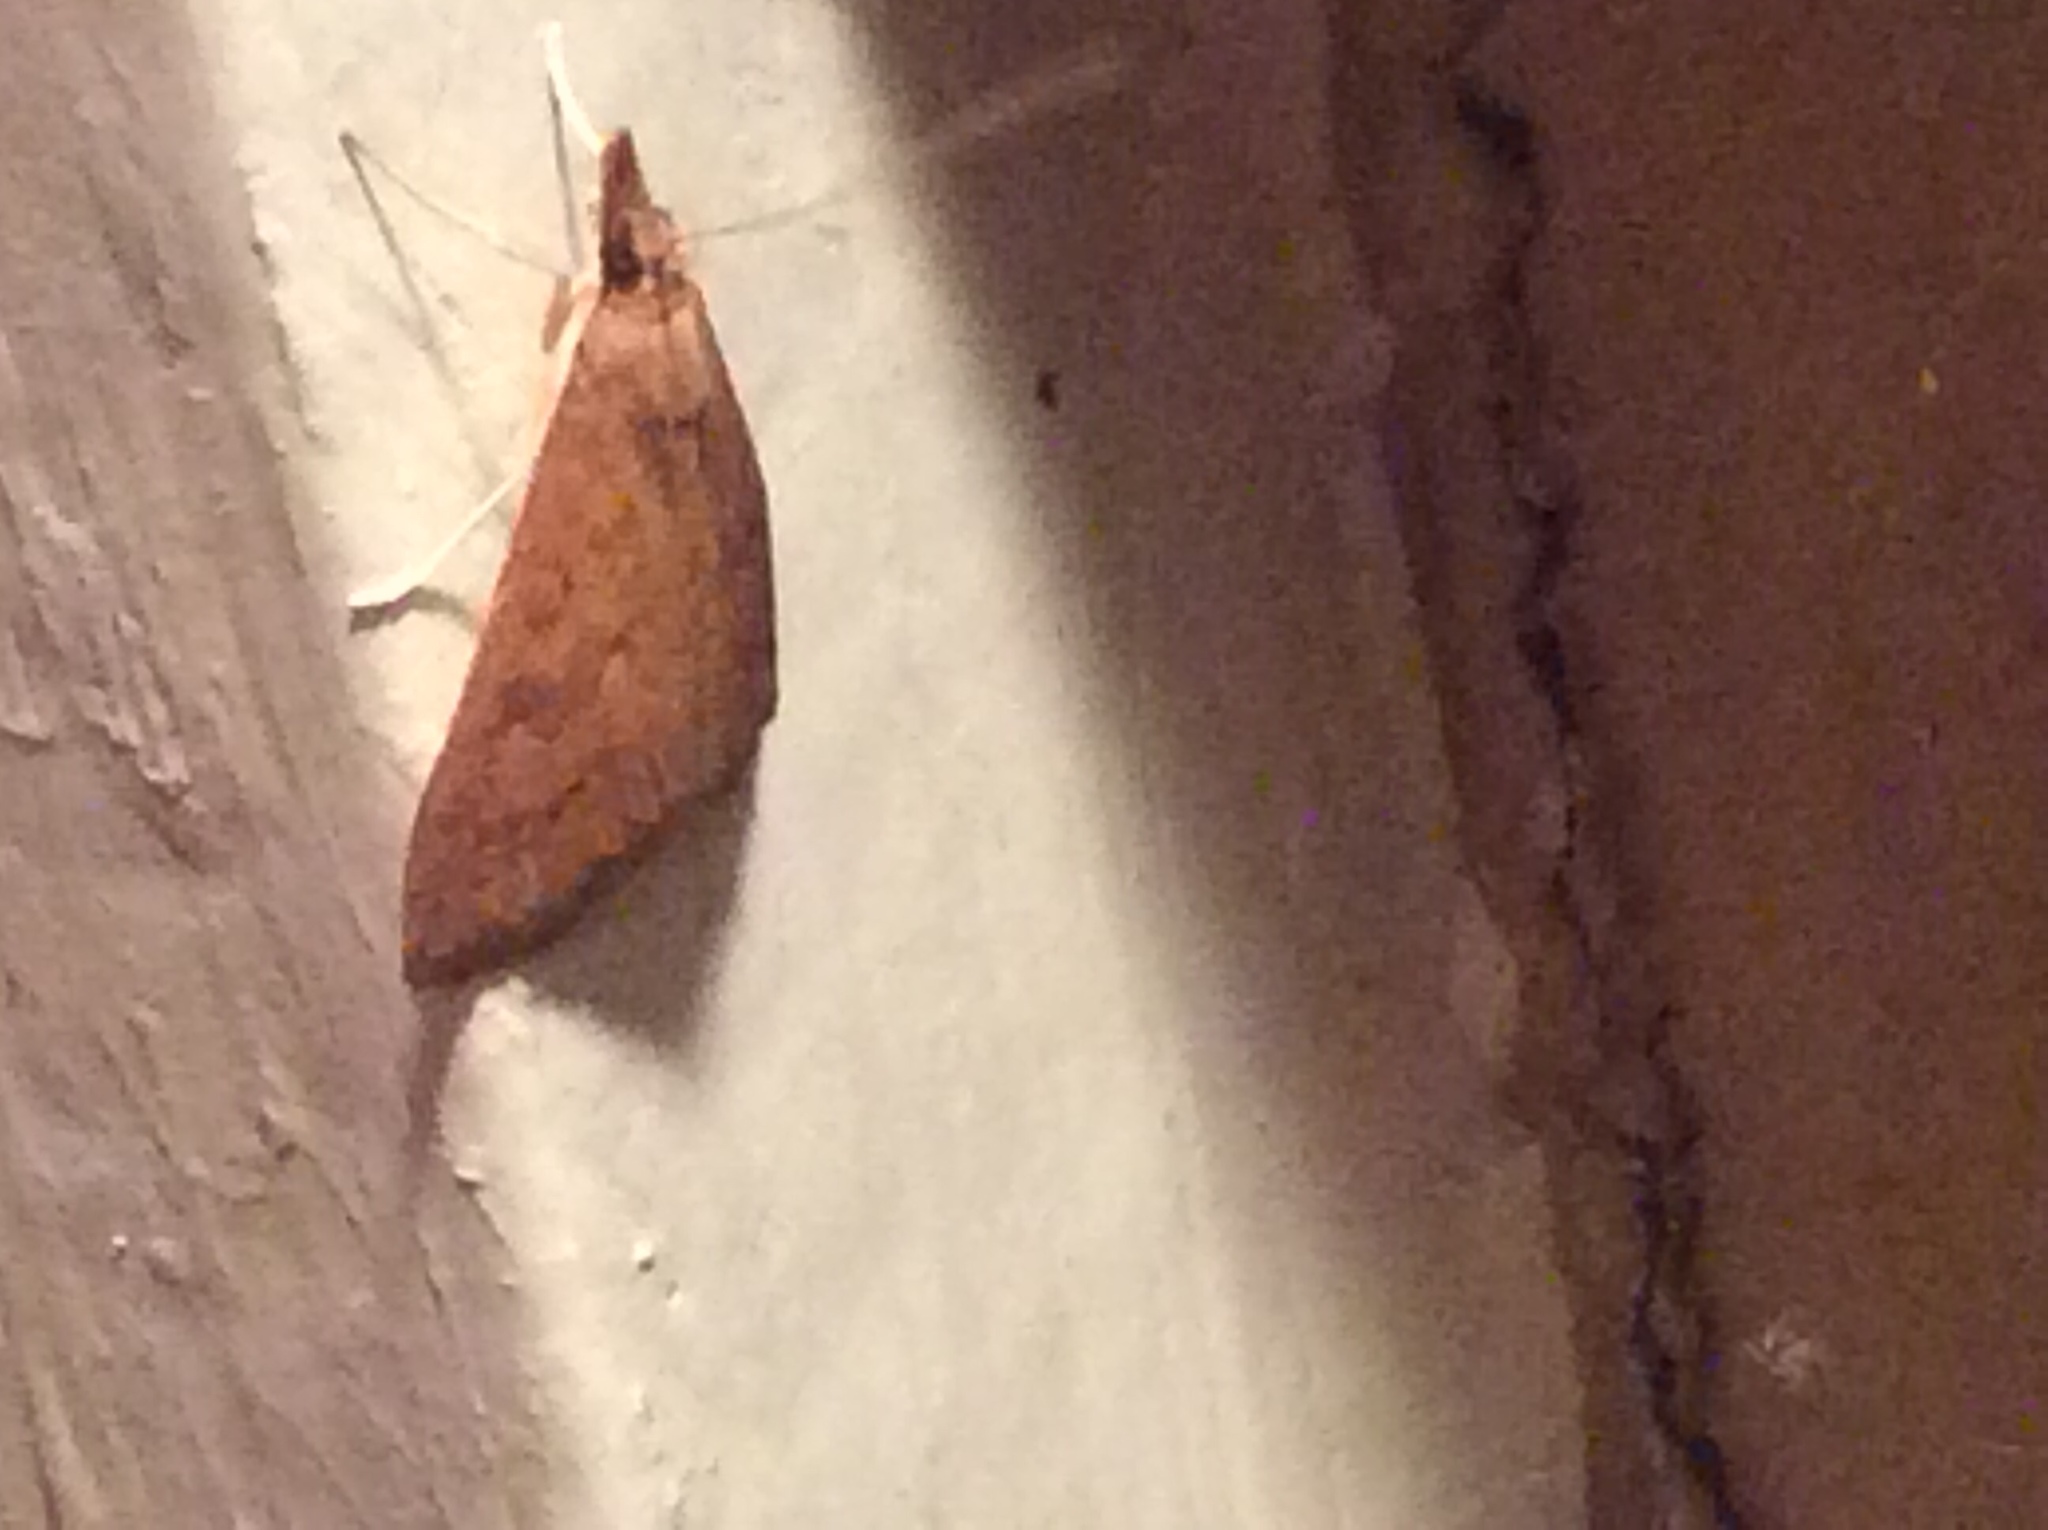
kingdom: Animalia
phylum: Arthropoda
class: Insecta
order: Lepidoptera
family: Crambidae
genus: Udea
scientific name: Udea rubigalis
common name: Celery leaftier moth
